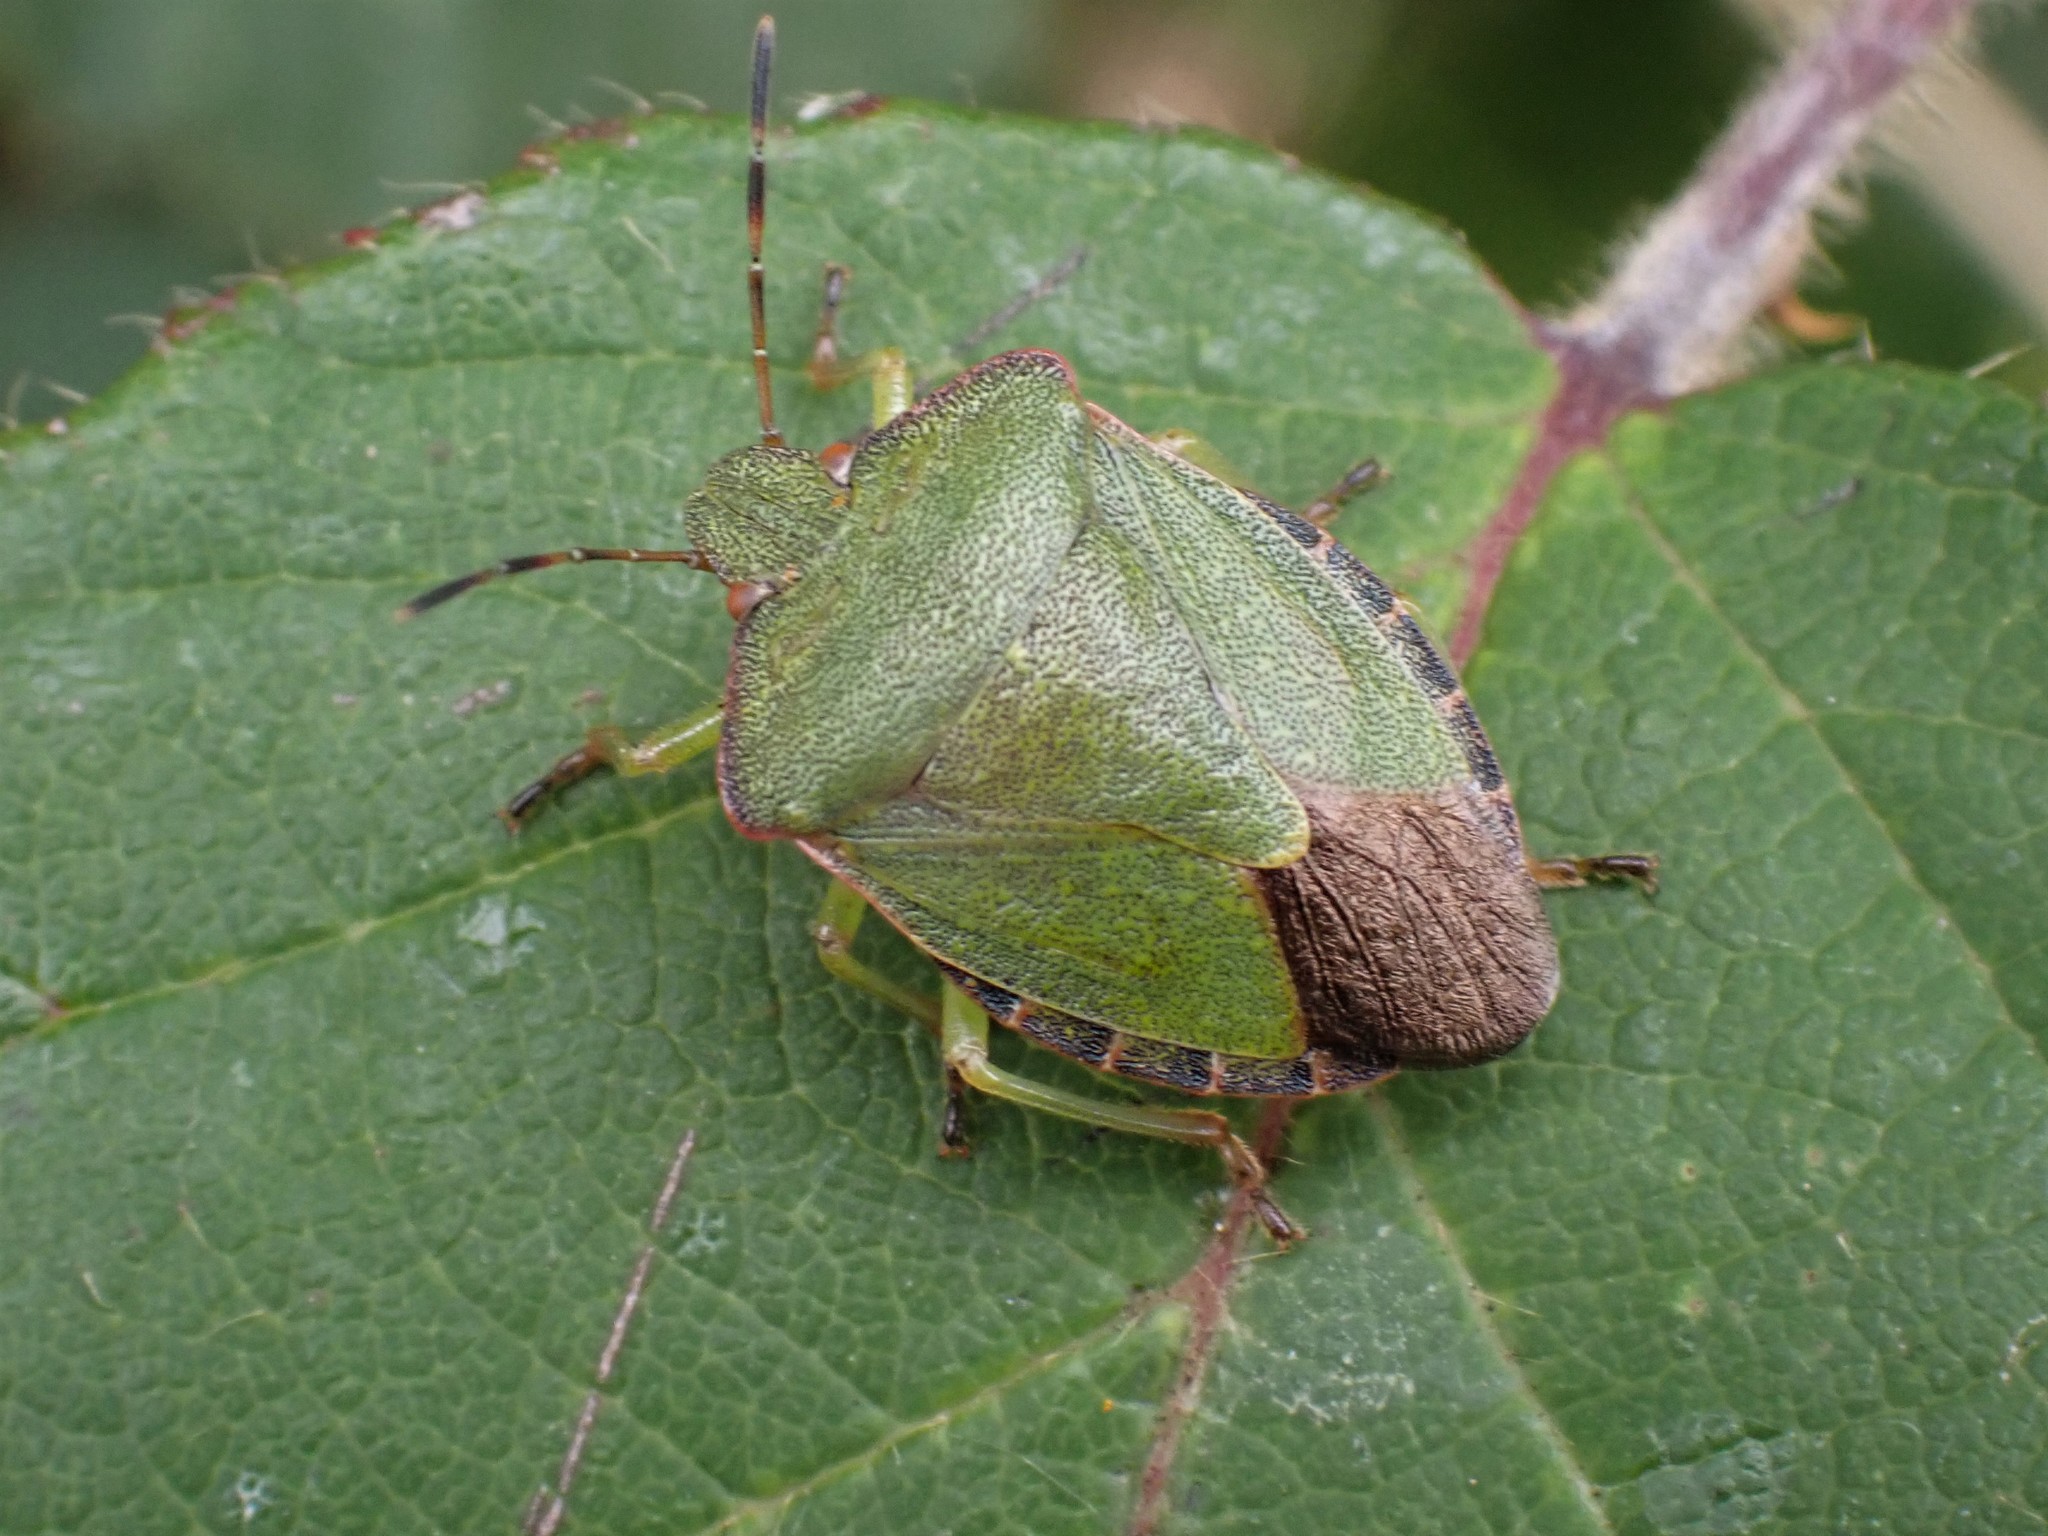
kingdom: Animalia
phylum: Arthropoda
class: Insecta
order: Hemiptera
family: Pentatomidae
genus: Palomena
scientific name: Palomena prasina
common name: Green shieldbug
